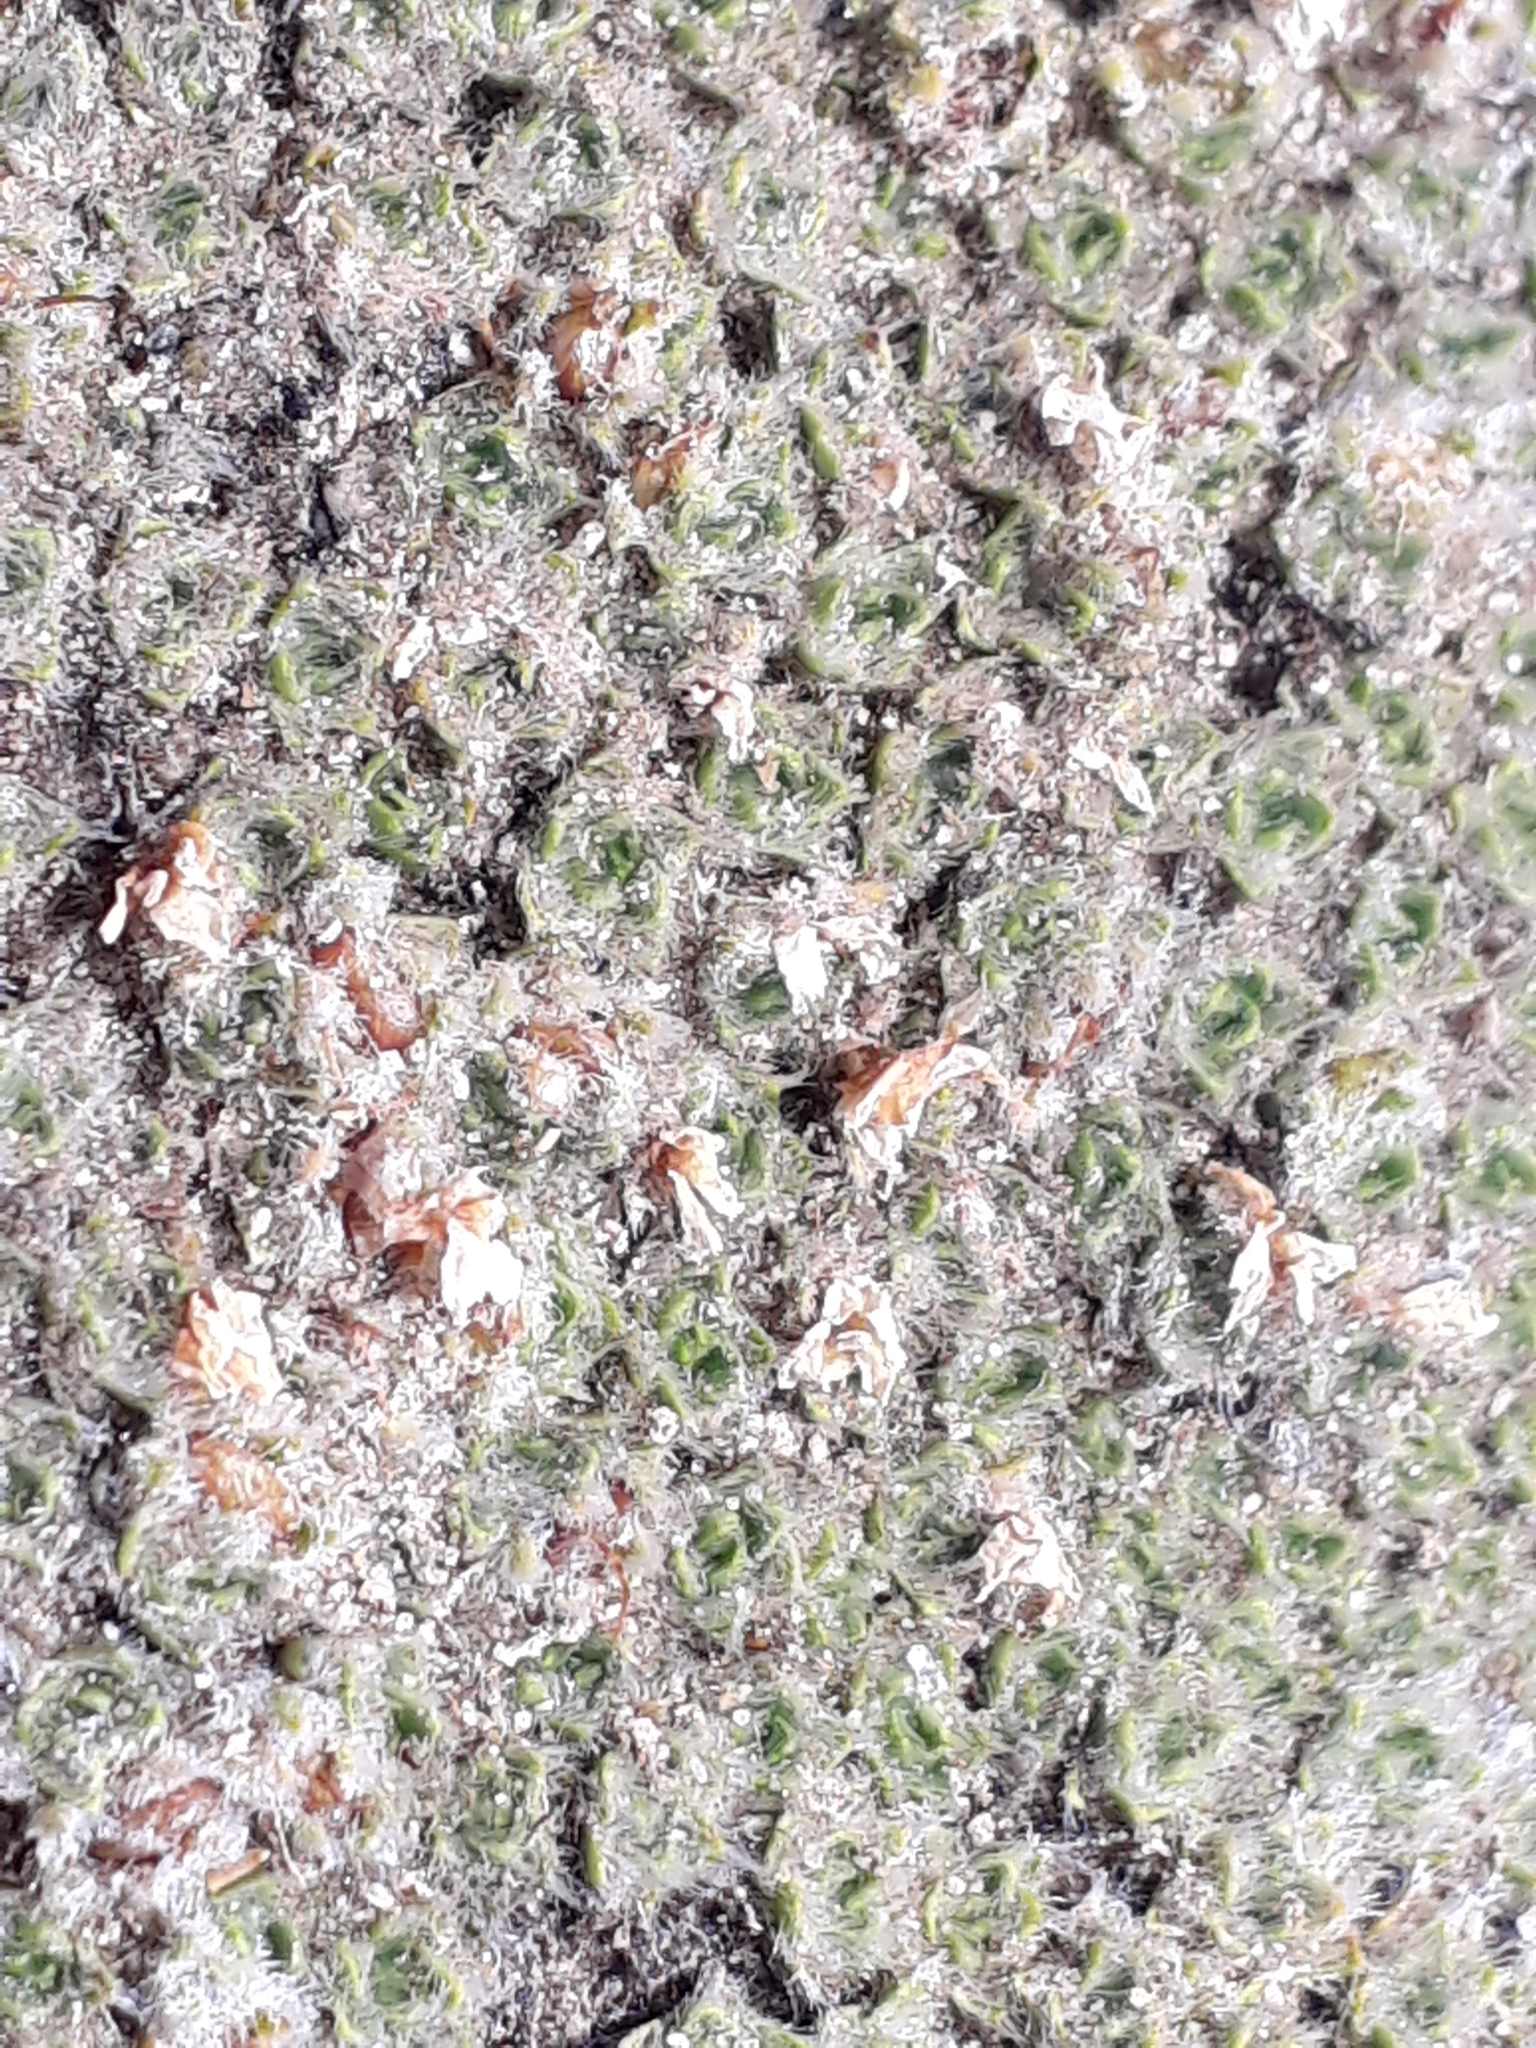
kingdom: Plantae
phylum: Tracheophyta
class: Magnoliopsida
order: Lamiales
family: Plantaginaceae
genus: Veronica
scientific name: Veronica thomsonii
